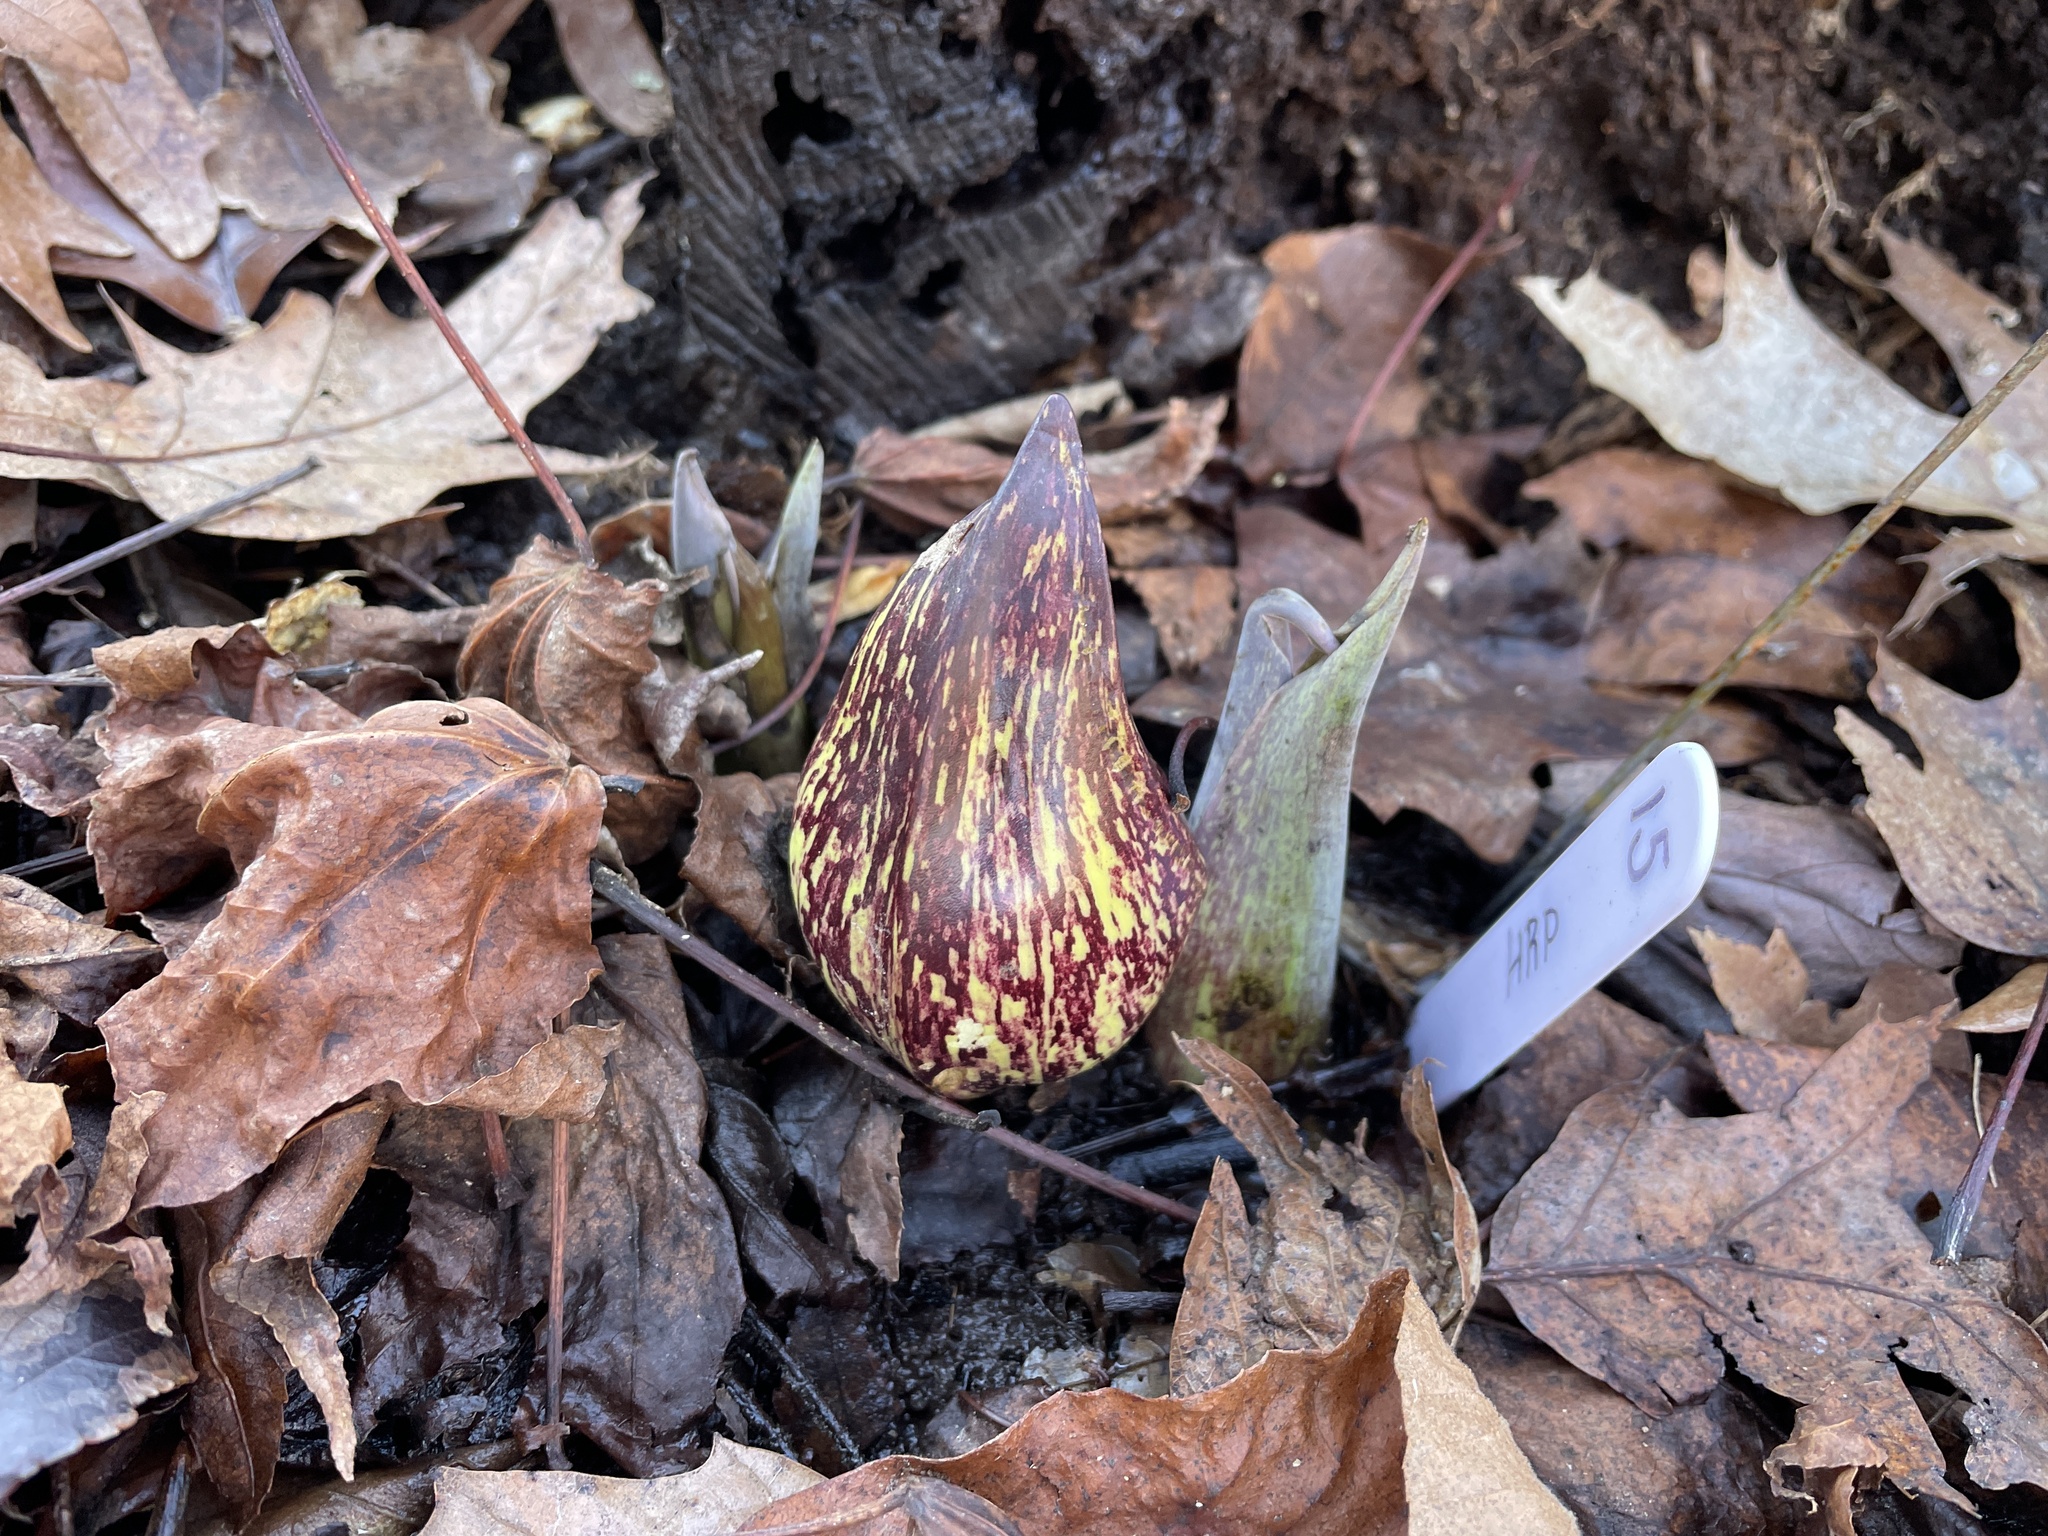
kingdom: Plantae
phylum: Tracheophyta
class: Liliopsida
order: Alismatales
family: Araceae
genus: Symplocarpus
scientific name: Symplocarpus foetidus
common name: Eastern skunk cabbage
